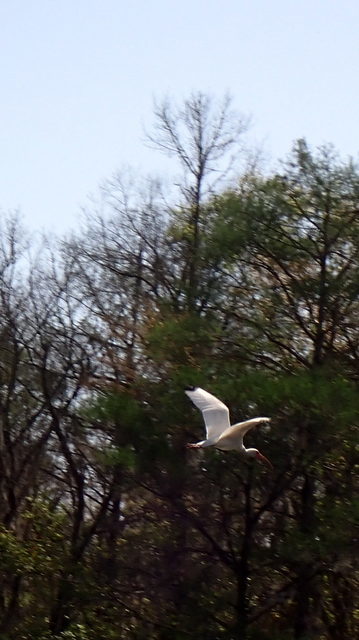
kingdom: Animalia
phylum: Chordata
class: Aves
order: Pelecaniformes
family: Threskiornithidae
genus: Eudocimus
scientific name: Eudocimus albus
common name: White ibis
